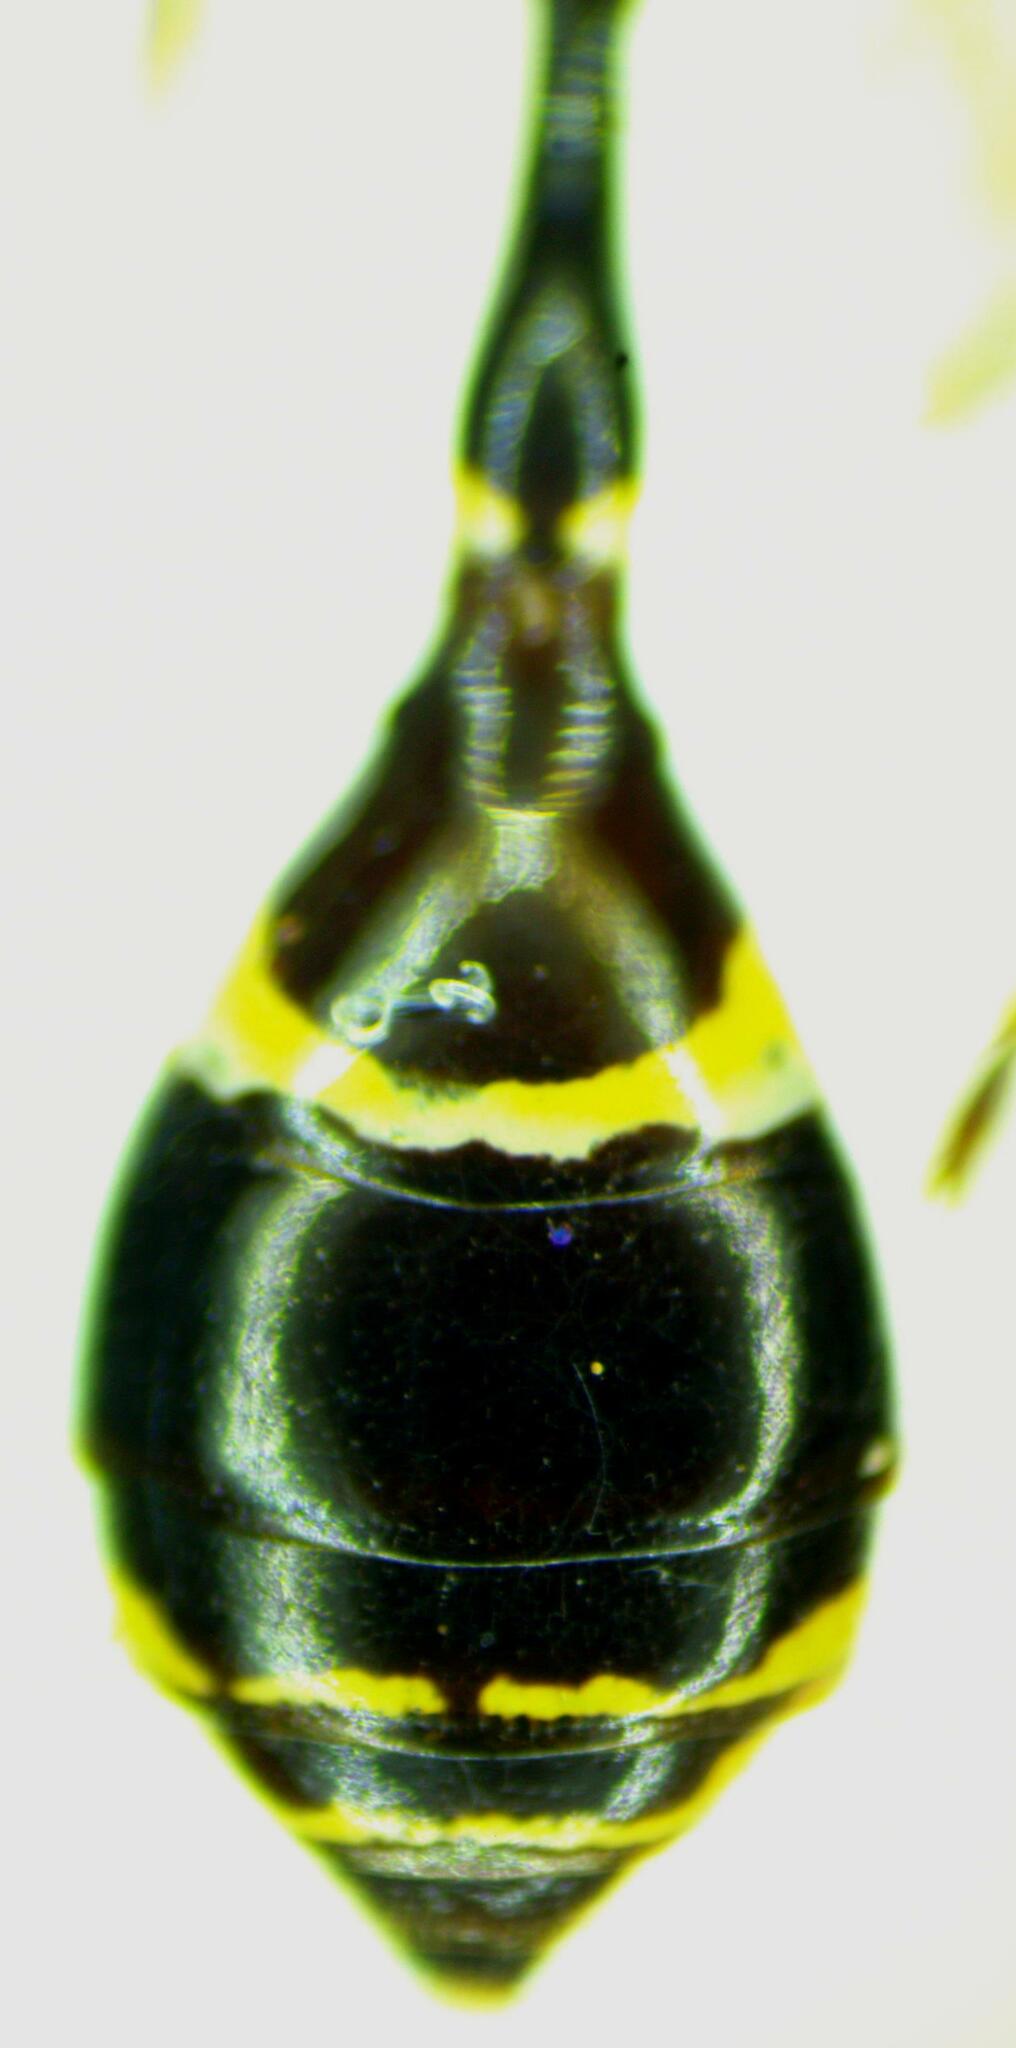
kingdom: Animalia
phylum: Arthropoda
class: Insecta
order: Hymenoptera
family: Crabronidae
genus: Trachypus
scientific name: Trachypus elongatus
